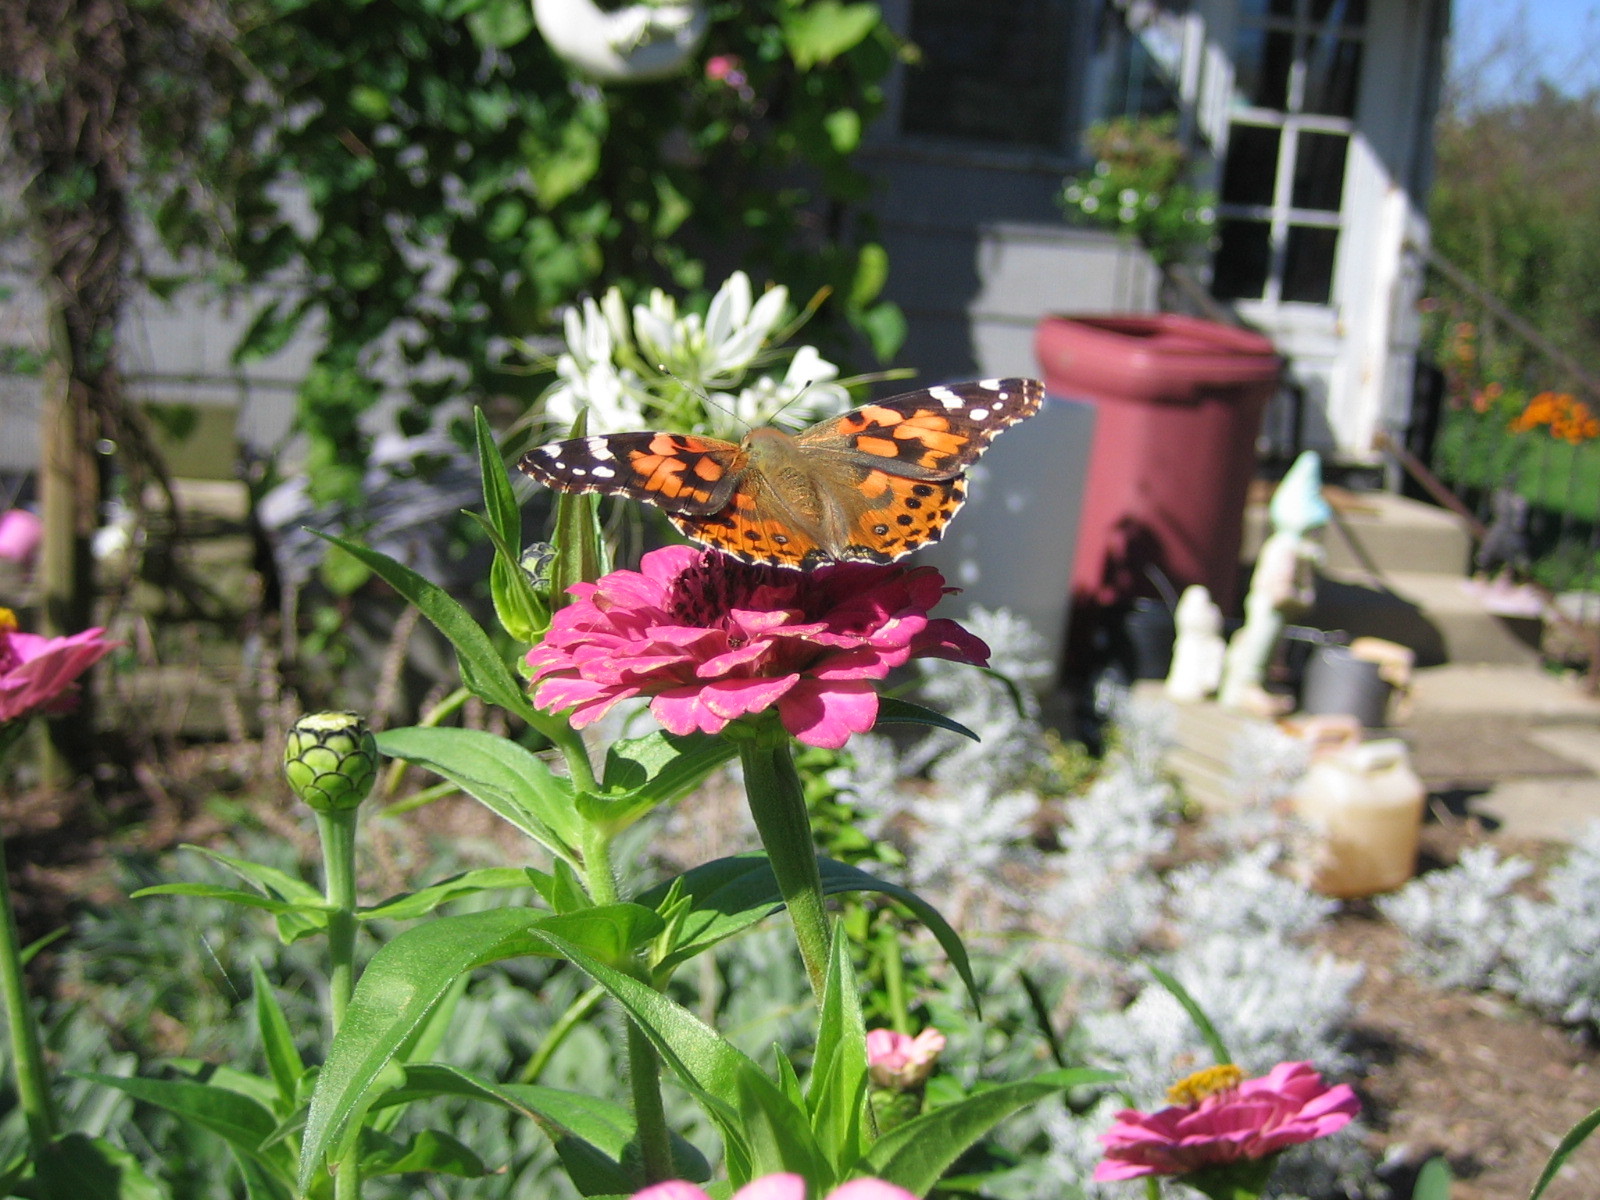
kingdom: Animalia
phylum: Arthropoda
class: Insecta
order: Lepidoptera
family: Nymphalidae
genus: Vanessa
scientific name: Vanessa cardui
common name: Painted lady
